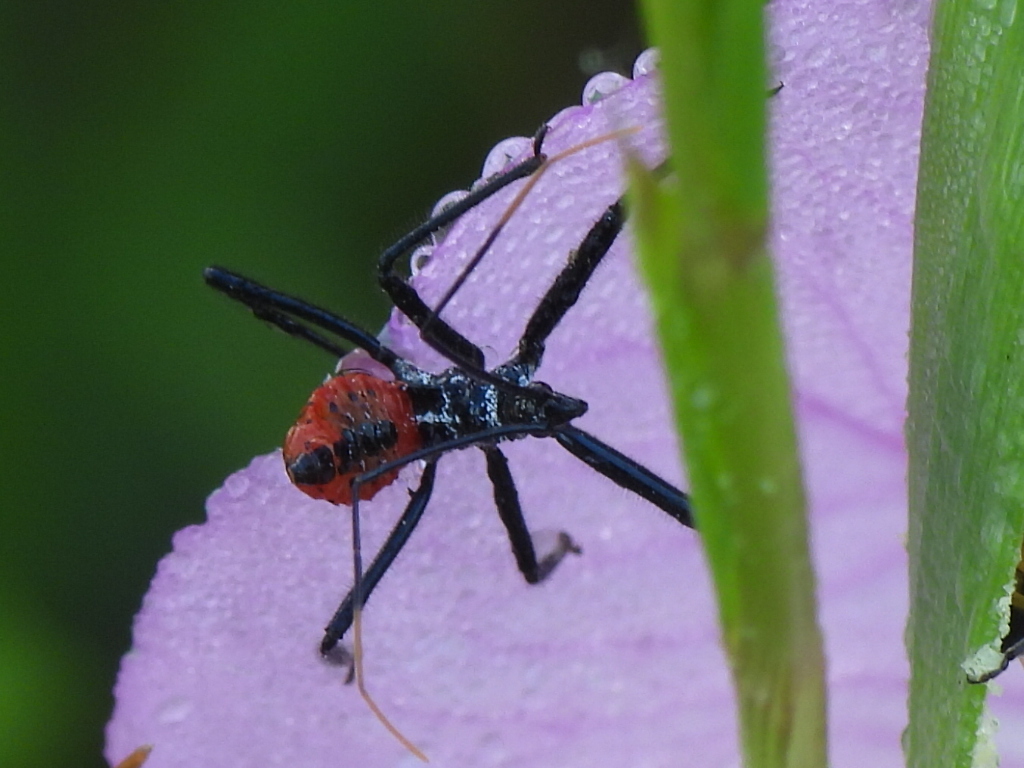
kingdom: Animalia
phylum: Arthropoda
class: Insecta
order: Hemiptera
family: Reduviidae
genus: Arilus
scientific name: Arilus cristatus
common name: North american wheel bug
